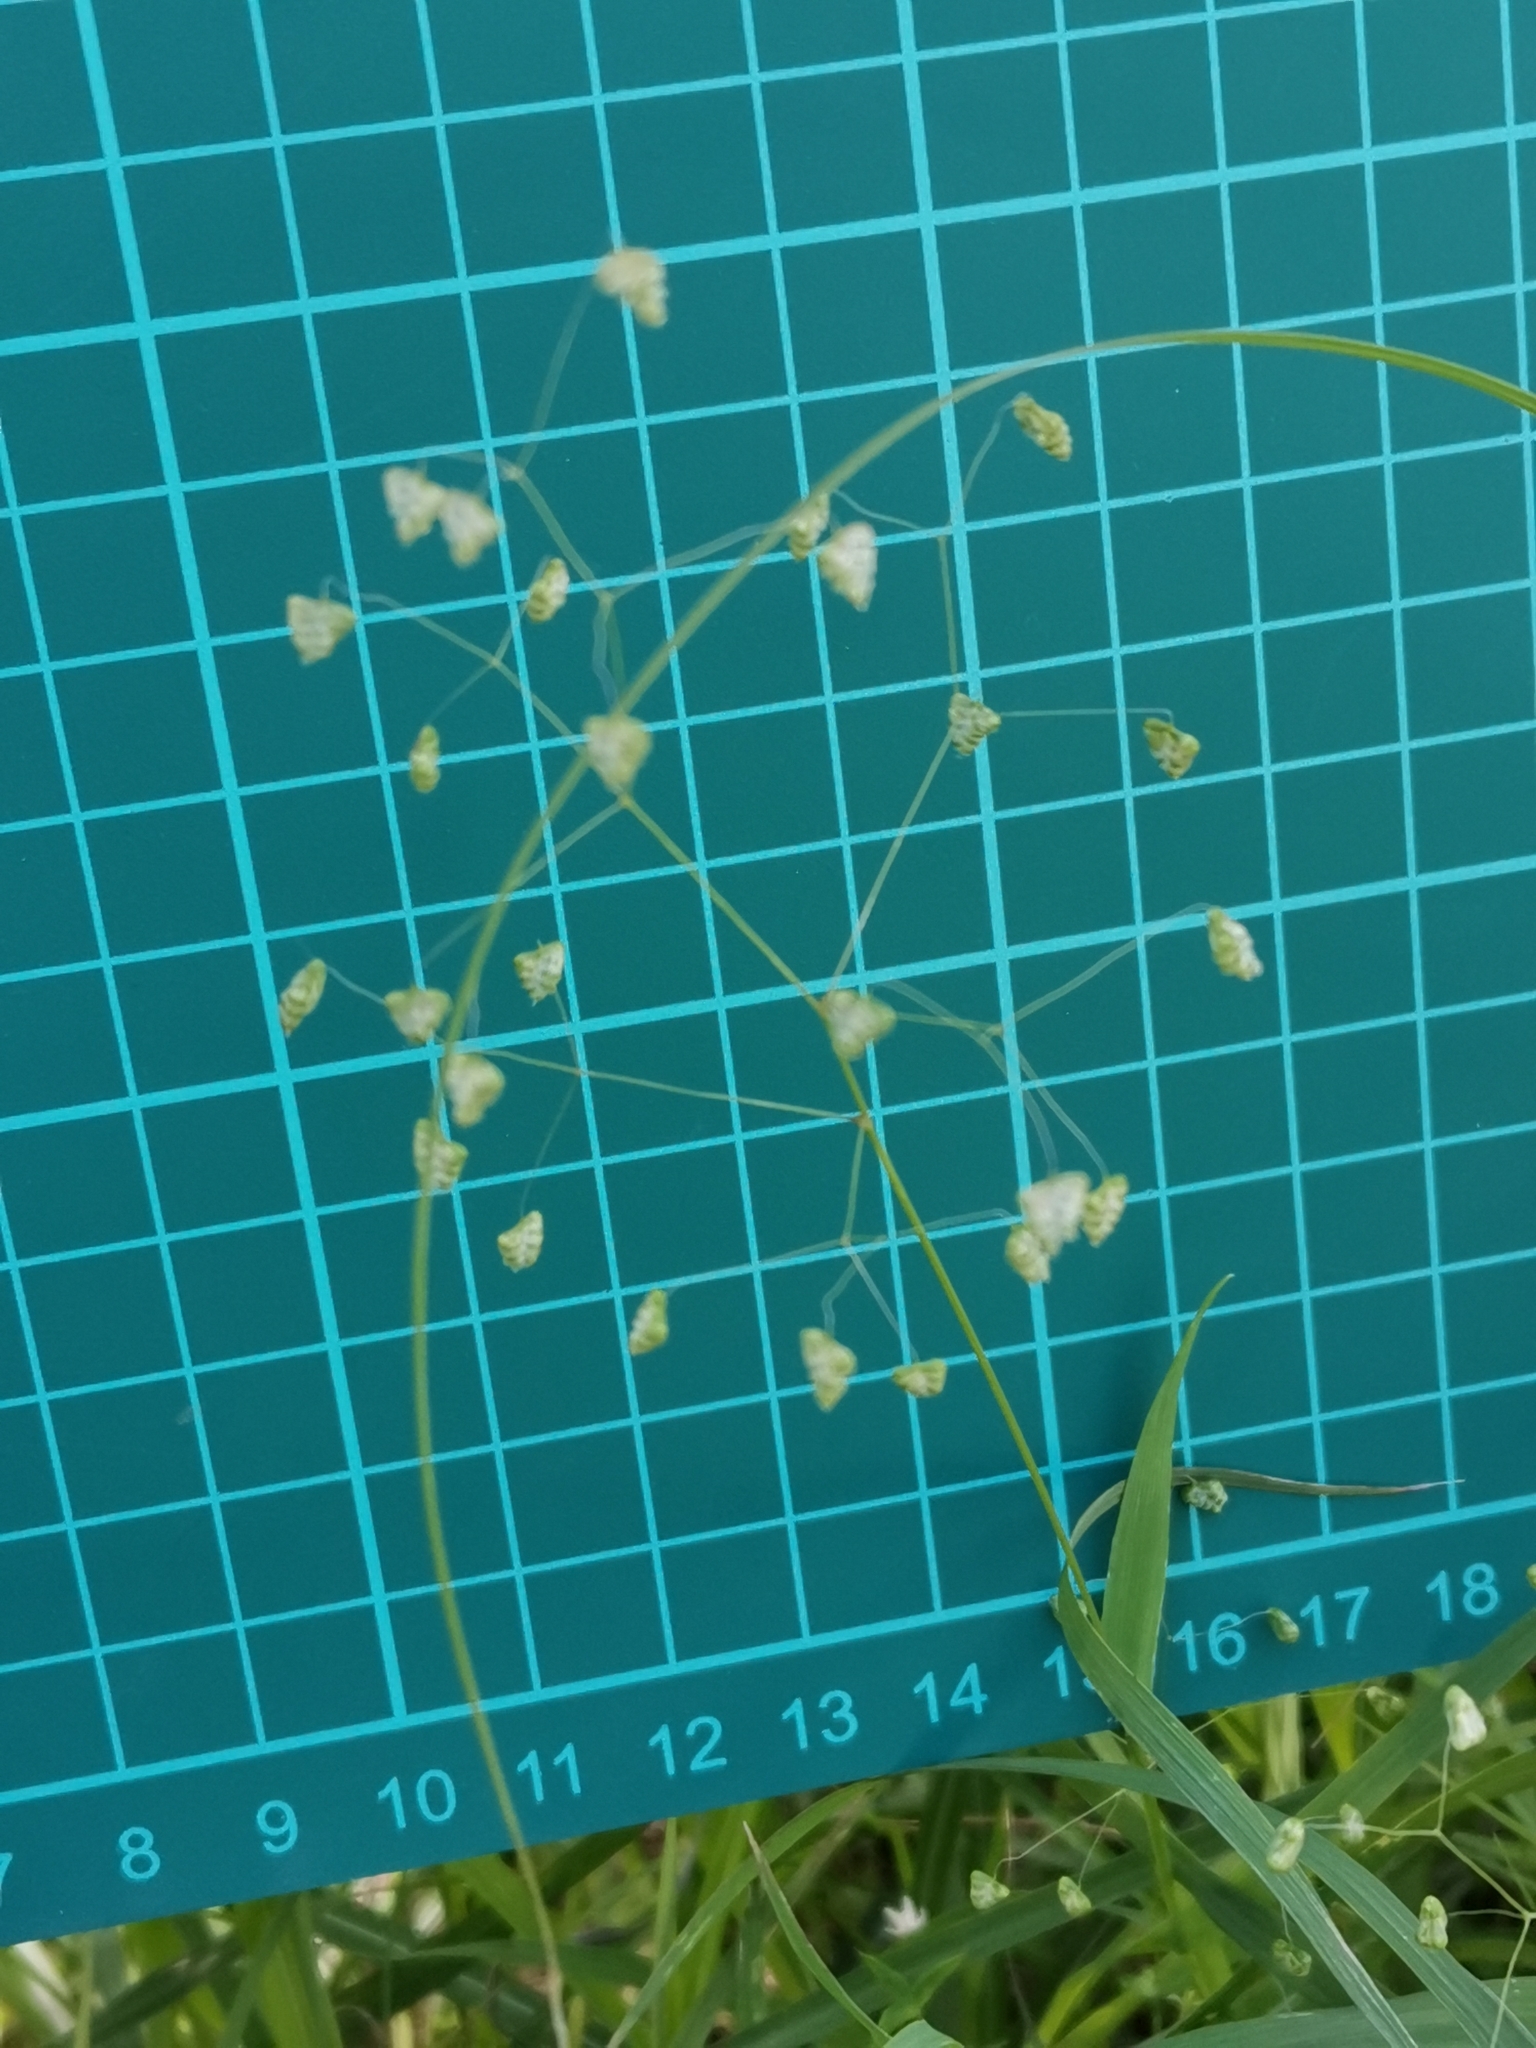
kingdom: Plantae
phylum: Tracheophyta
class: Liliopsida
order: Poales
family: Poaceae
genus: Briza
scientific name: Briza minor
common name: Lesser quaking-grass
